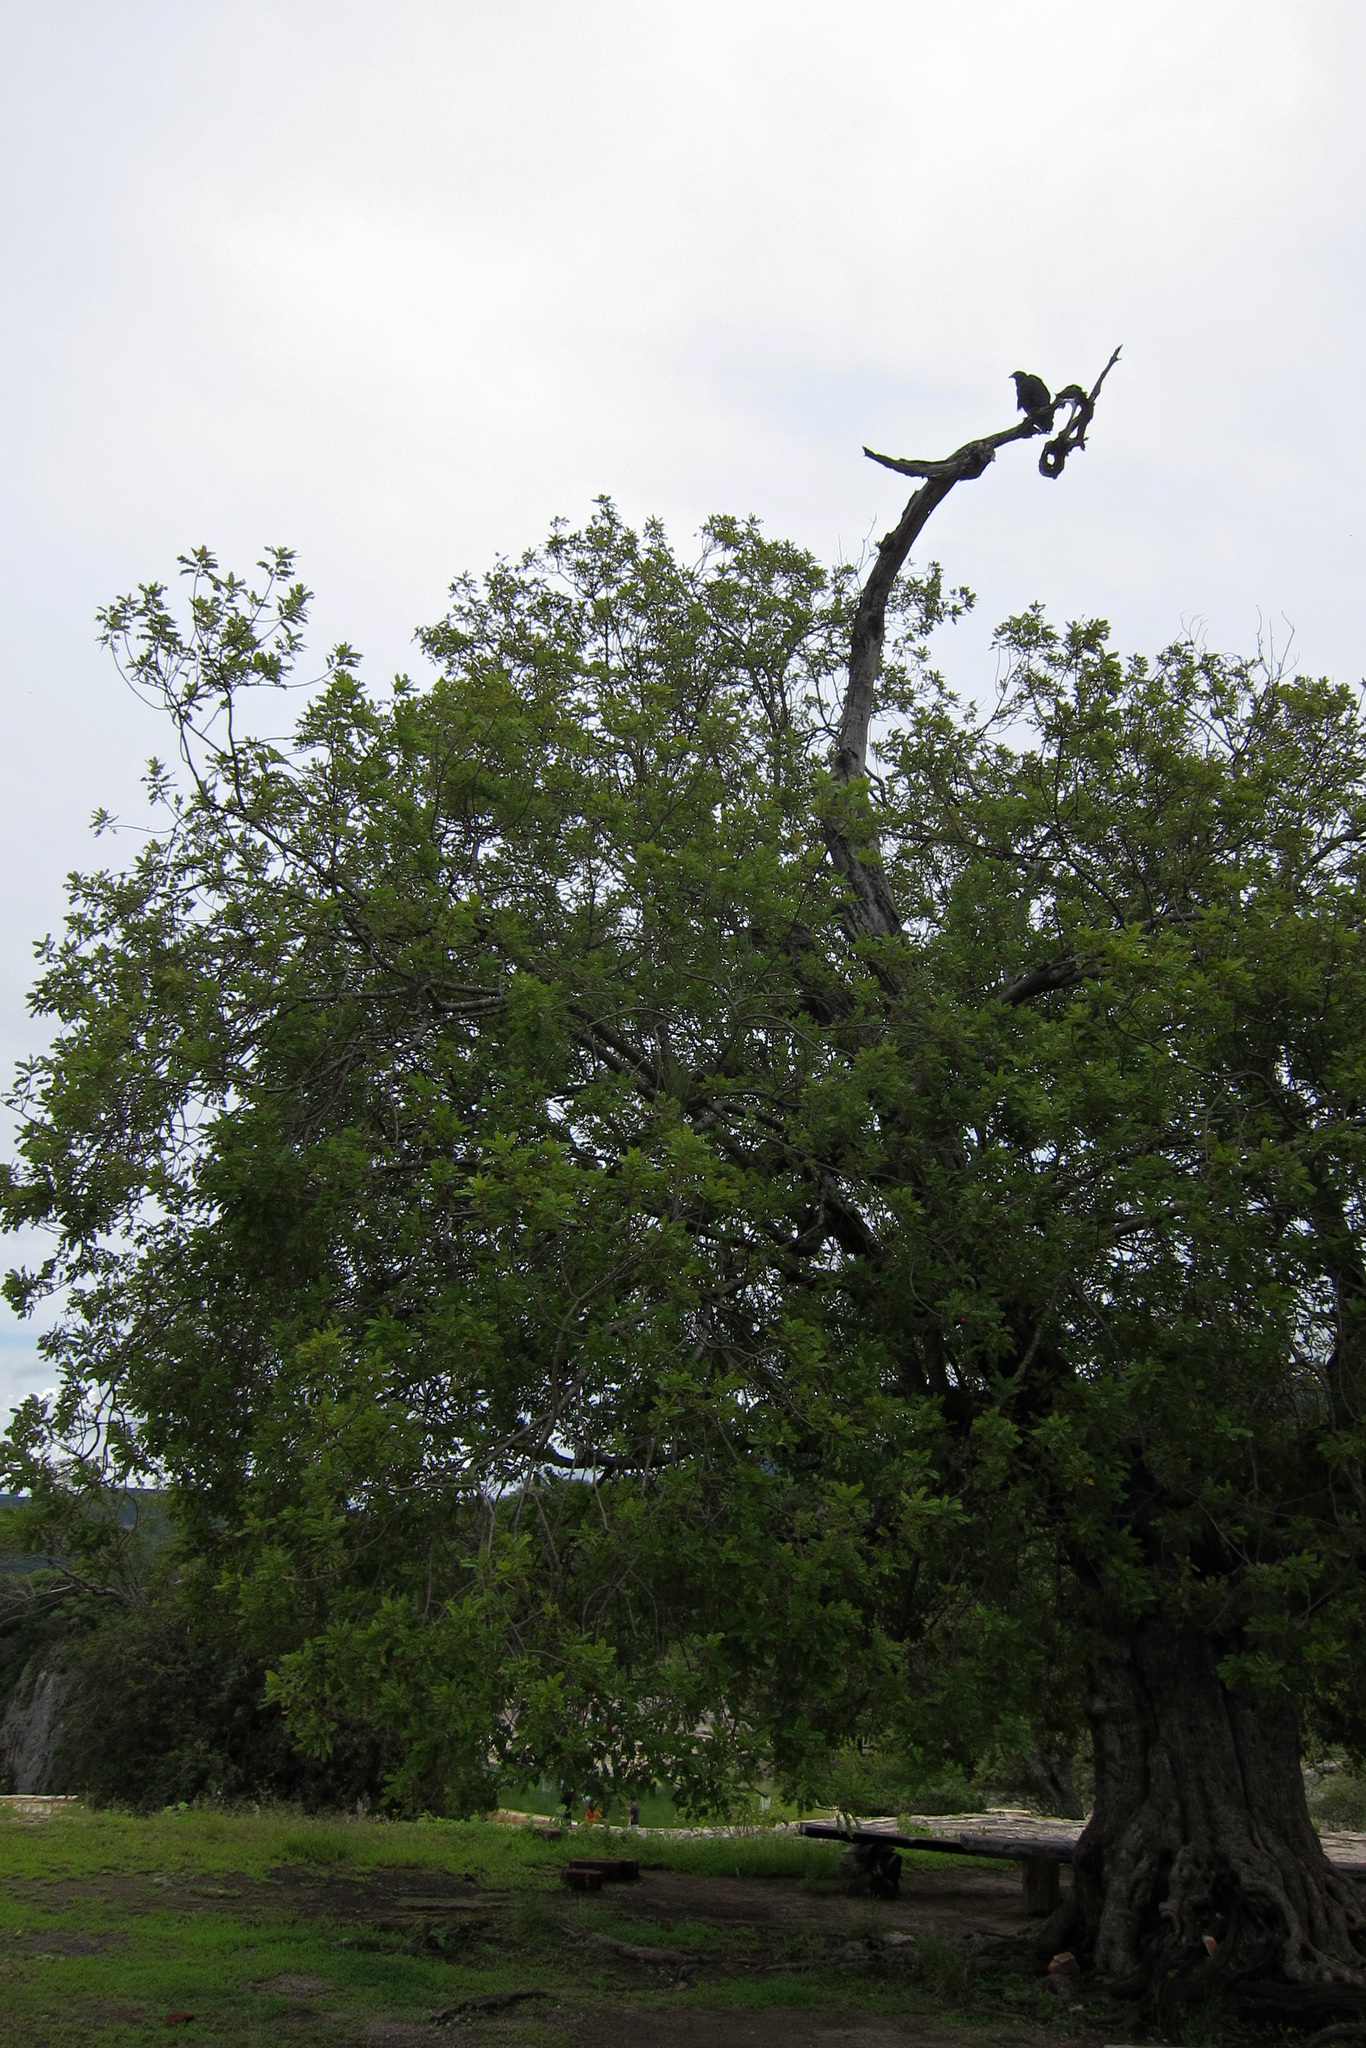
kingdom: Animalia
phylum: Chordata
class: Aves
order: Accipitriformes
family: Cathartidae
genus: Coragyps
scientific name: Coragyps atratus
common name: Black vulture
